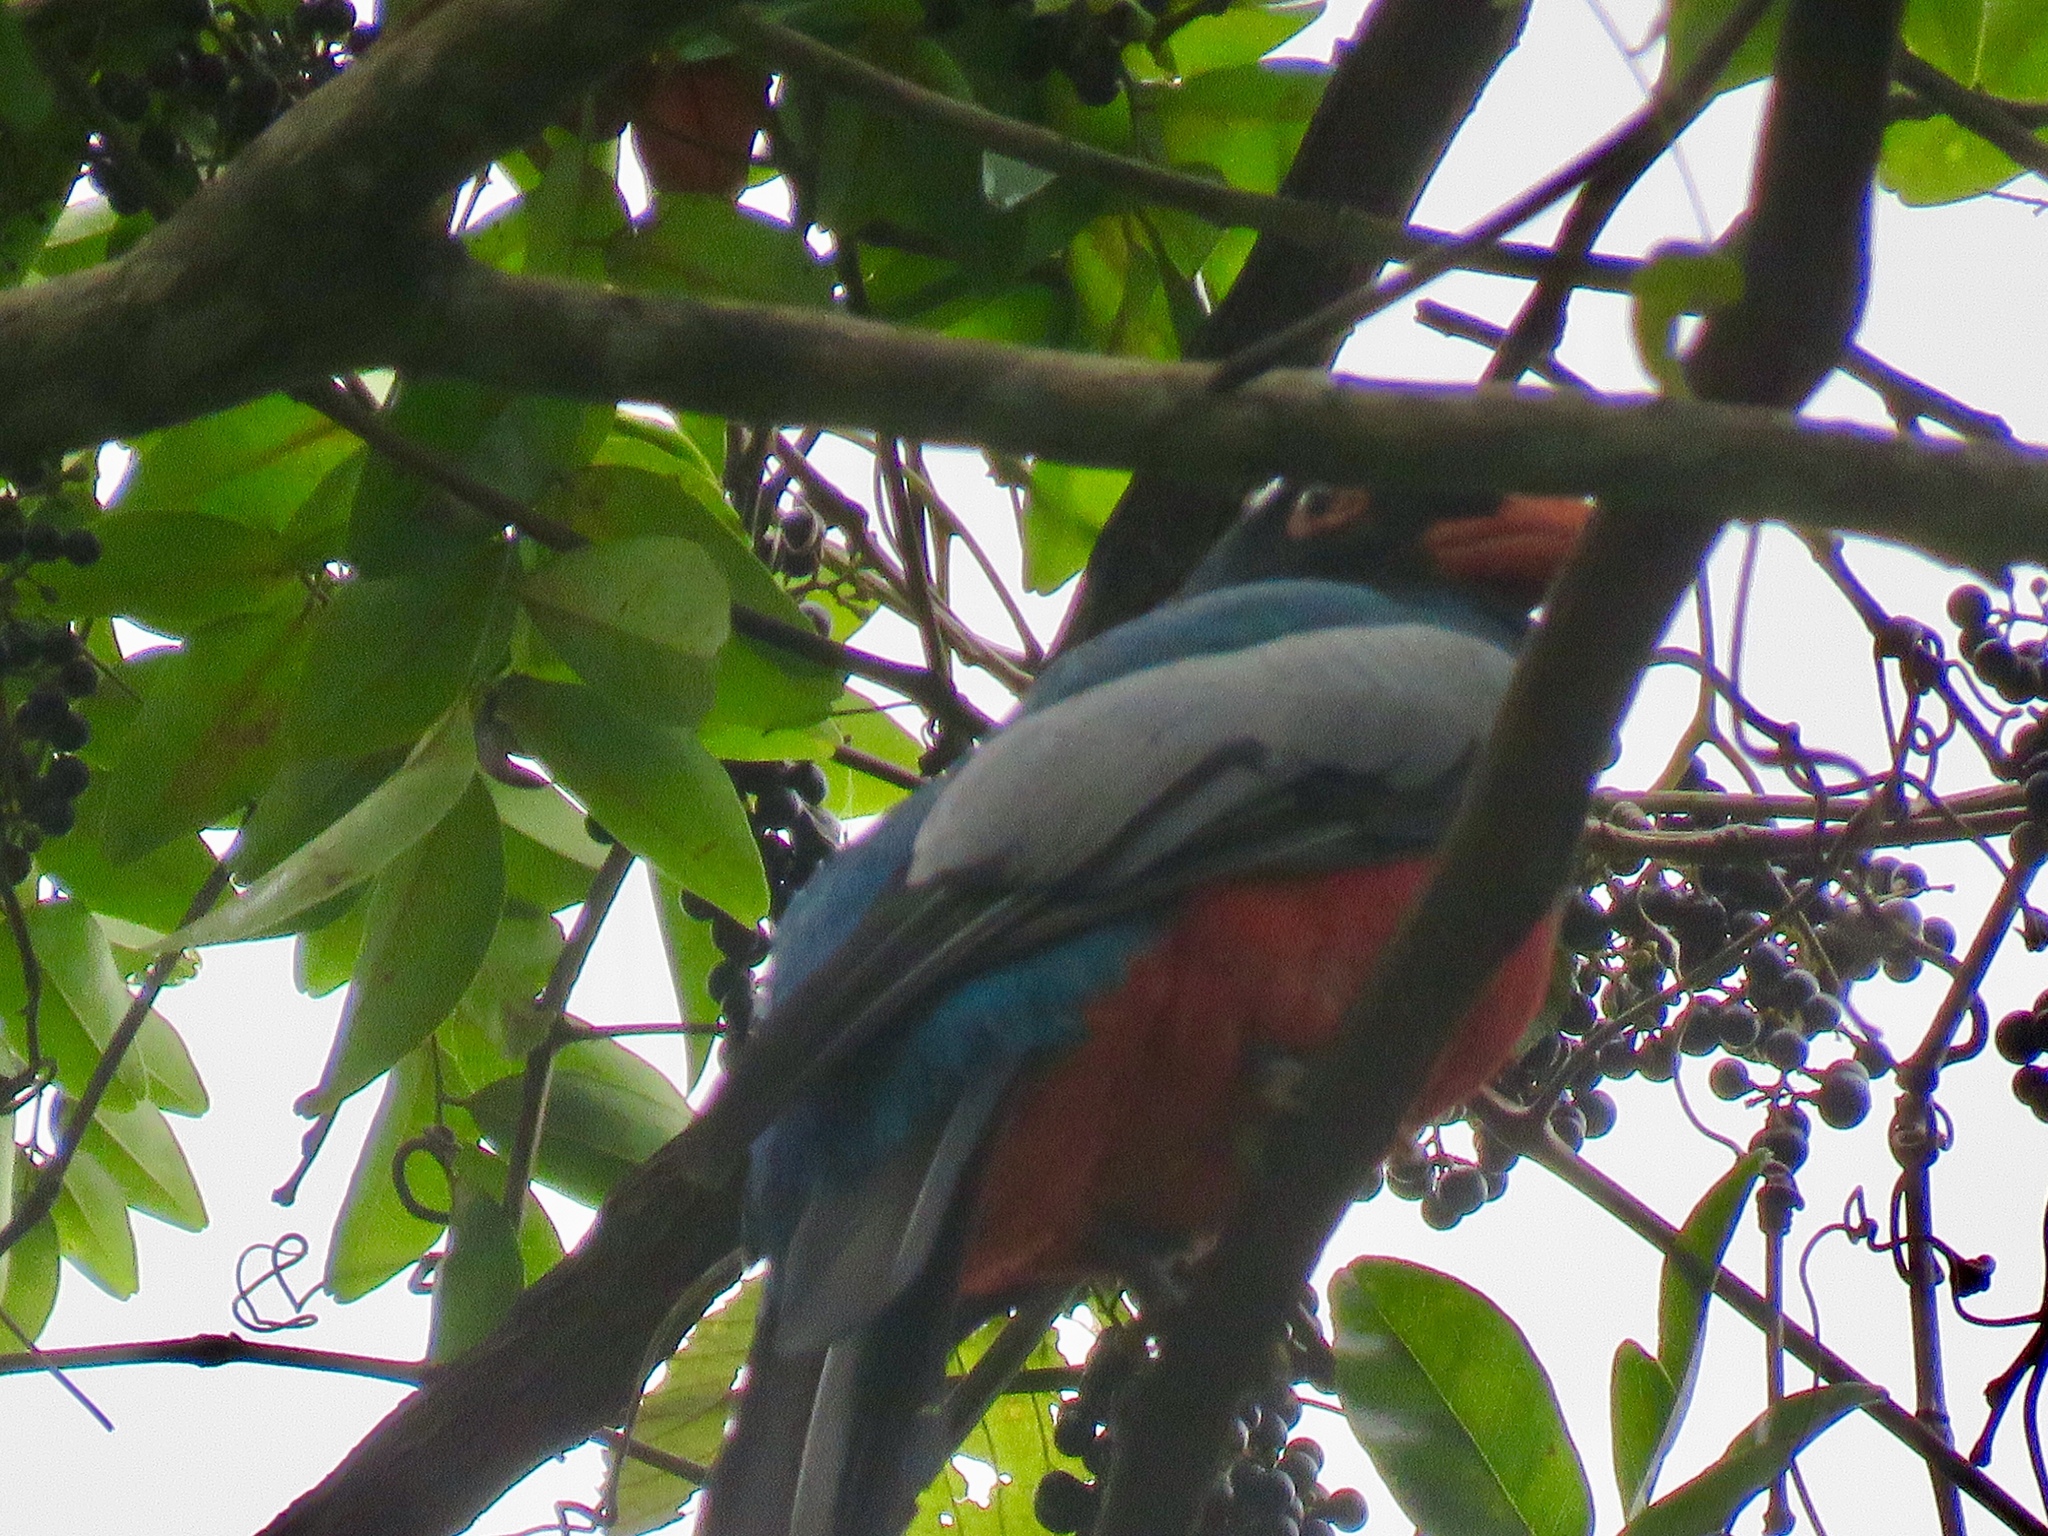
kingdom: Animalia
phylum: Chordata
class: Aves
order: Trogoniformes
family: Trogonidae
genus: Trogon
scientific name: Trogon massena
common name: Slaty-tailed trogon
